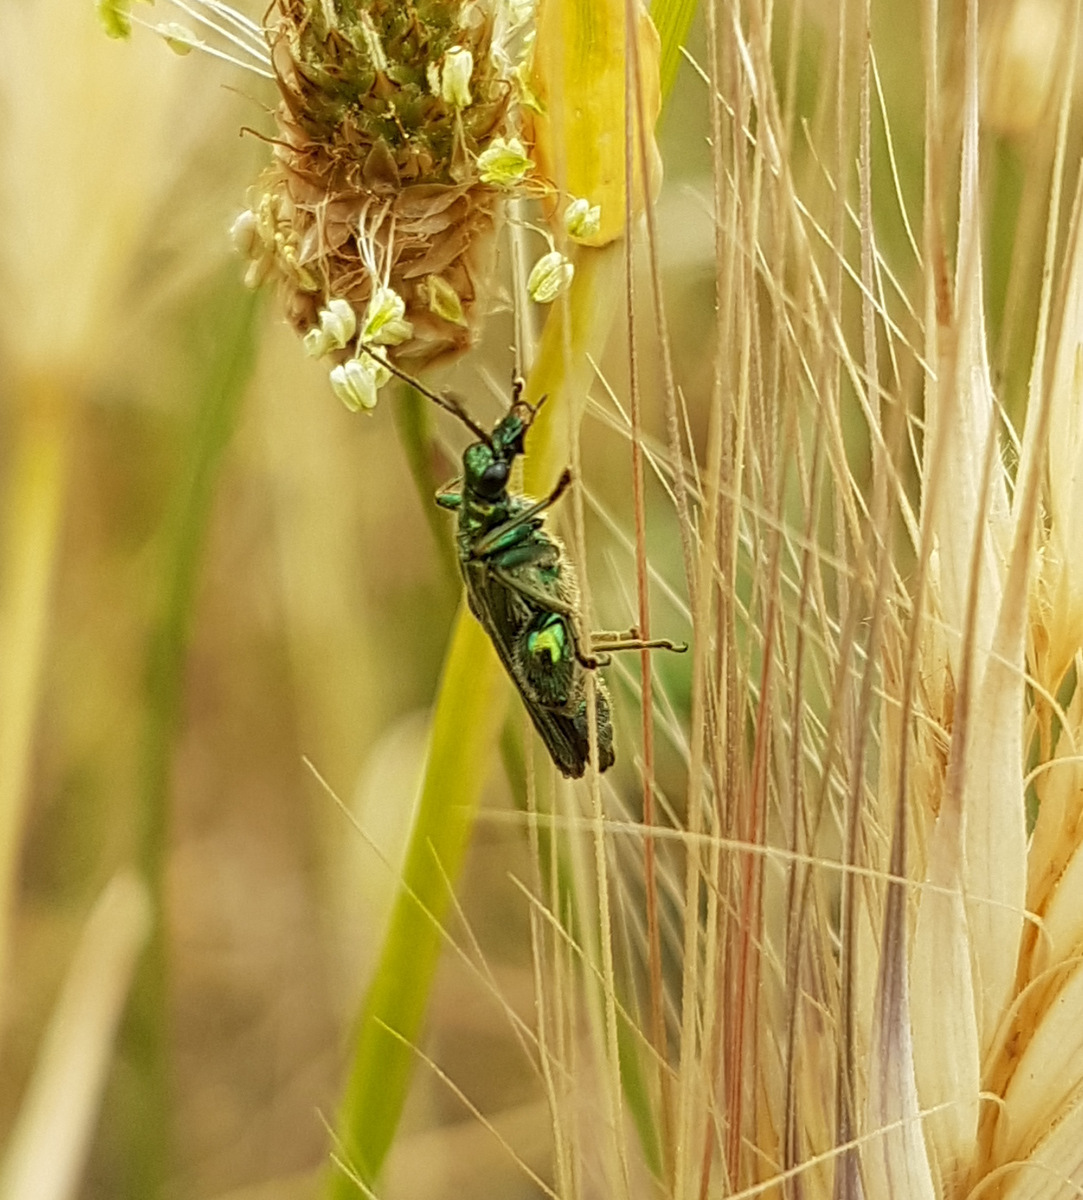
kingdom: Animalia
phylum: Arthropoda
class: Insecta
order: Coleoptera
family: Oedemeridae
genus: Oedemera
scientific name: Oedemera nobilis
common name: Swollen-thighed beetle
